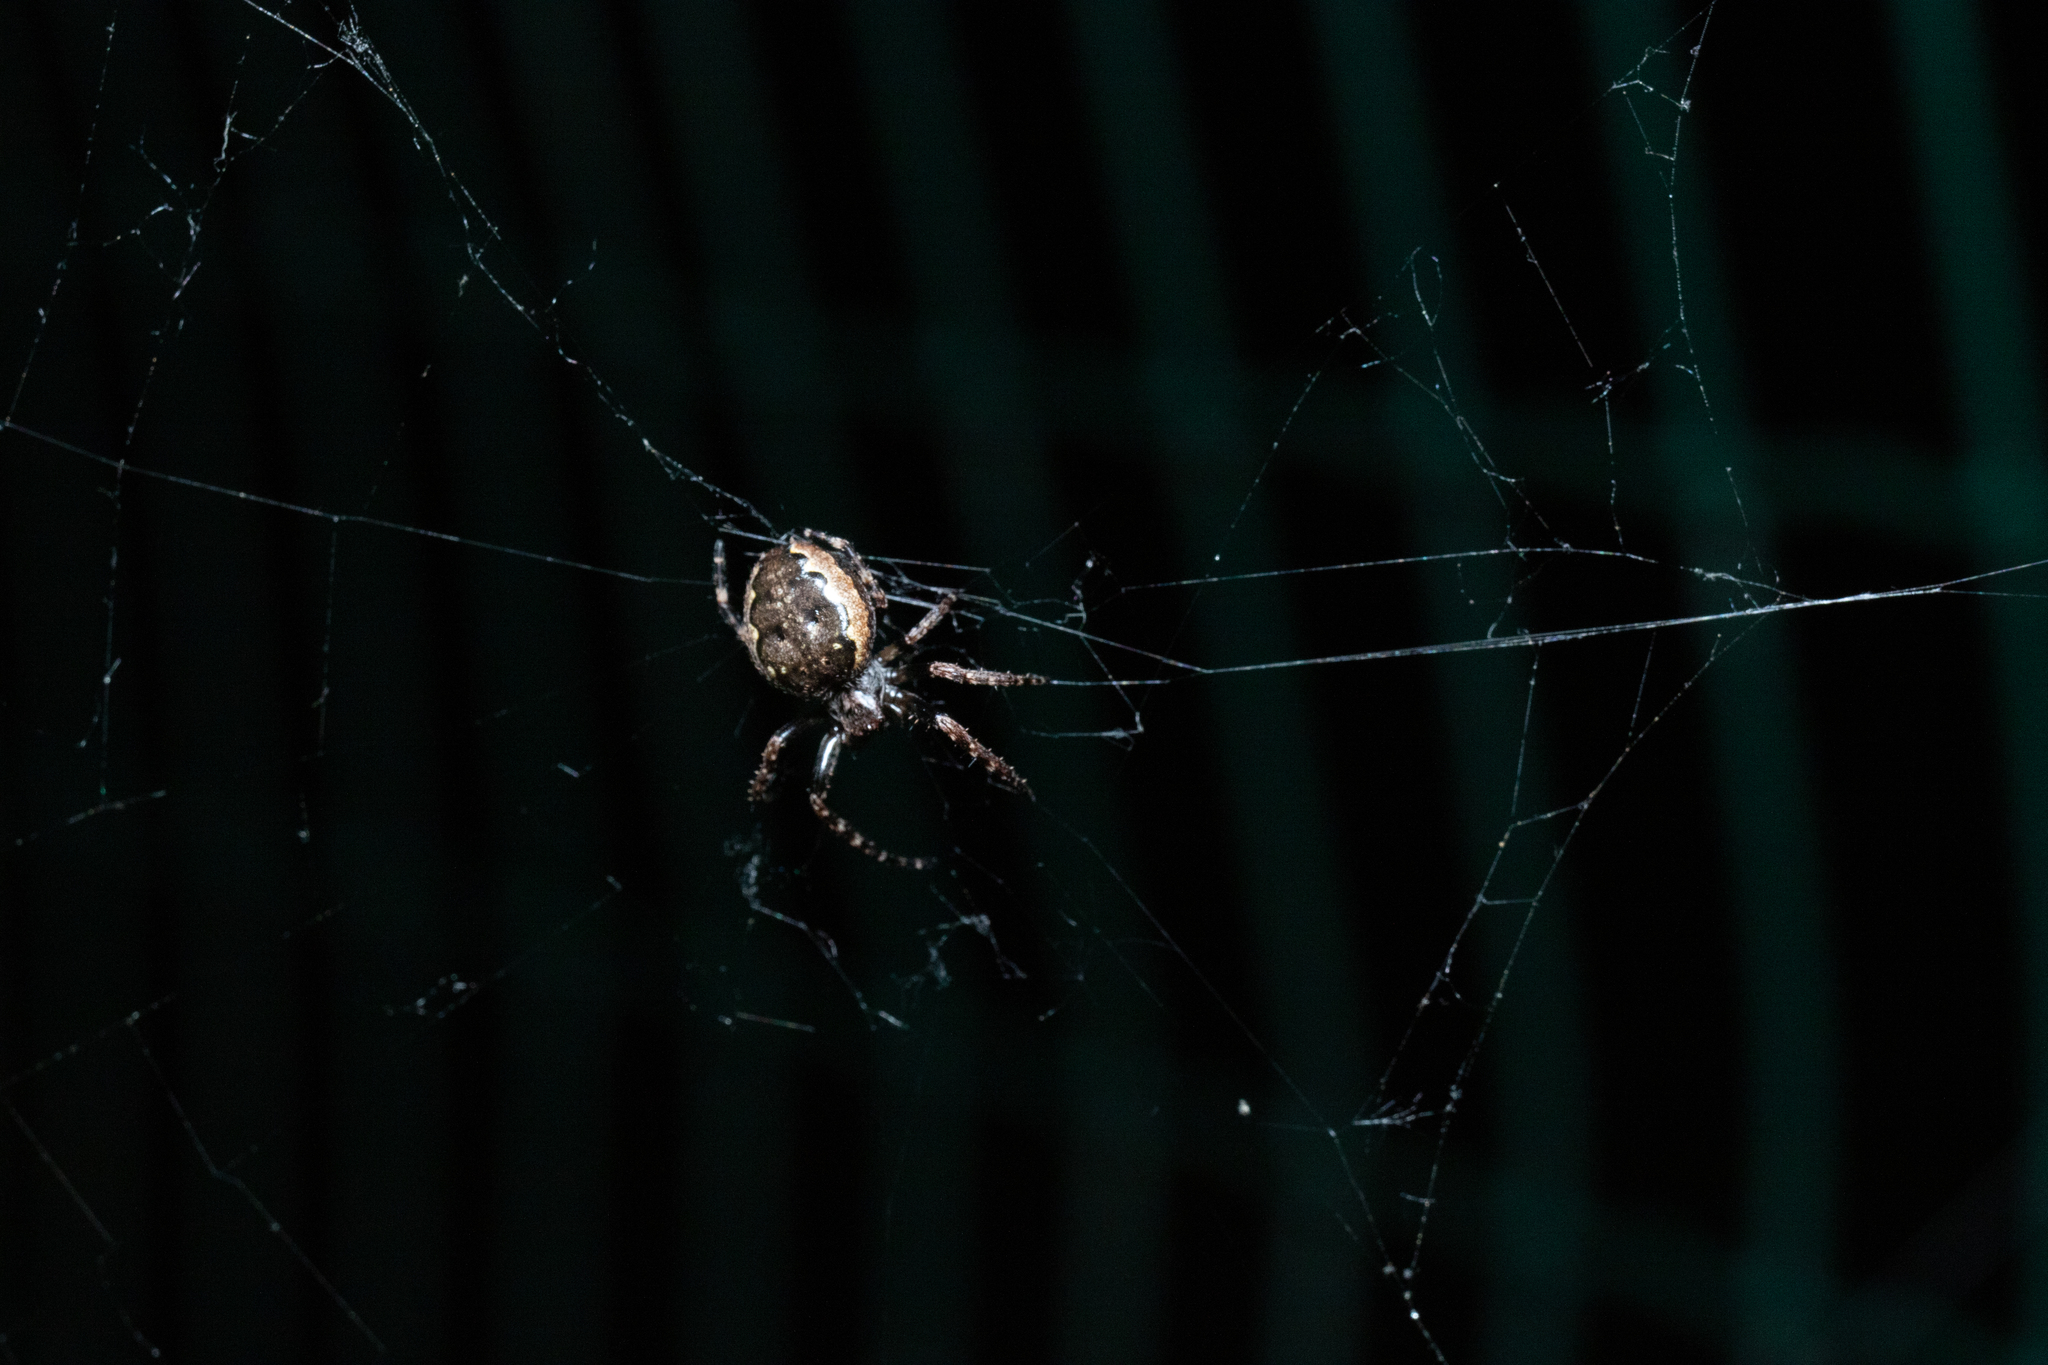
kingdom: Animalia
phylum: Arthropoda
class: Arachnida
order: Araneae
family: Araneidae
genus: Nuctenea
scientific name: Nuctenea umbratica
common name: Toad spider
